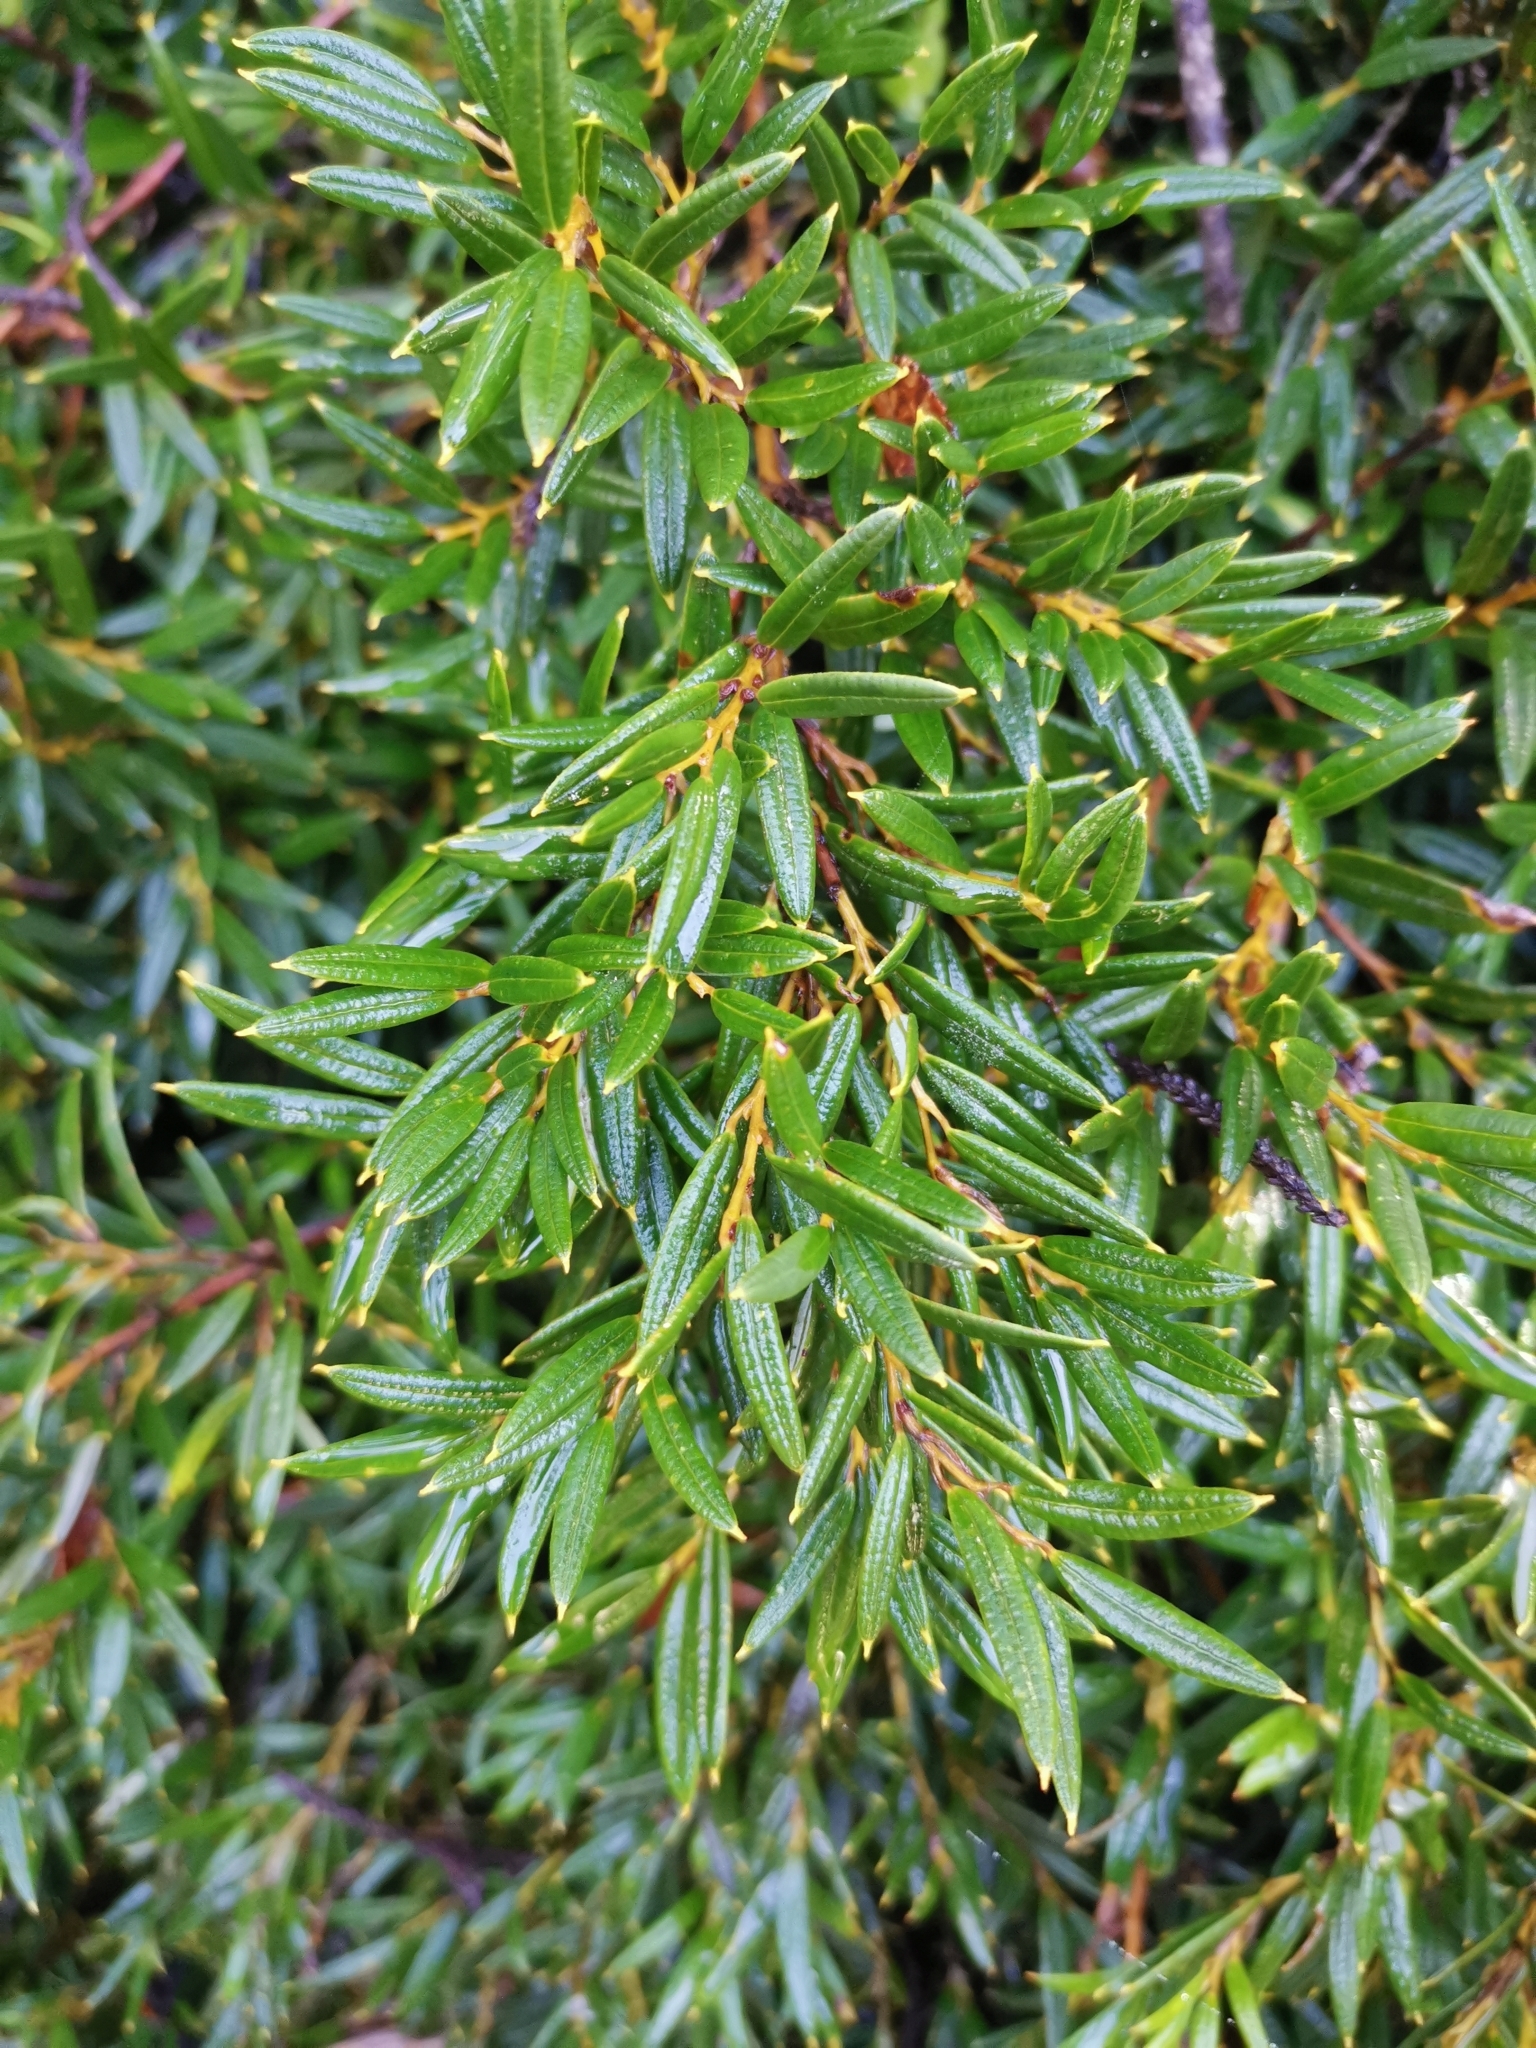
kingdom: Plantae
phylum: Tracheophyta
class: Liliopsida
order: Liliales
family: Philesiaceae
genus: Philesia
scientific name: Philesia magellanica
